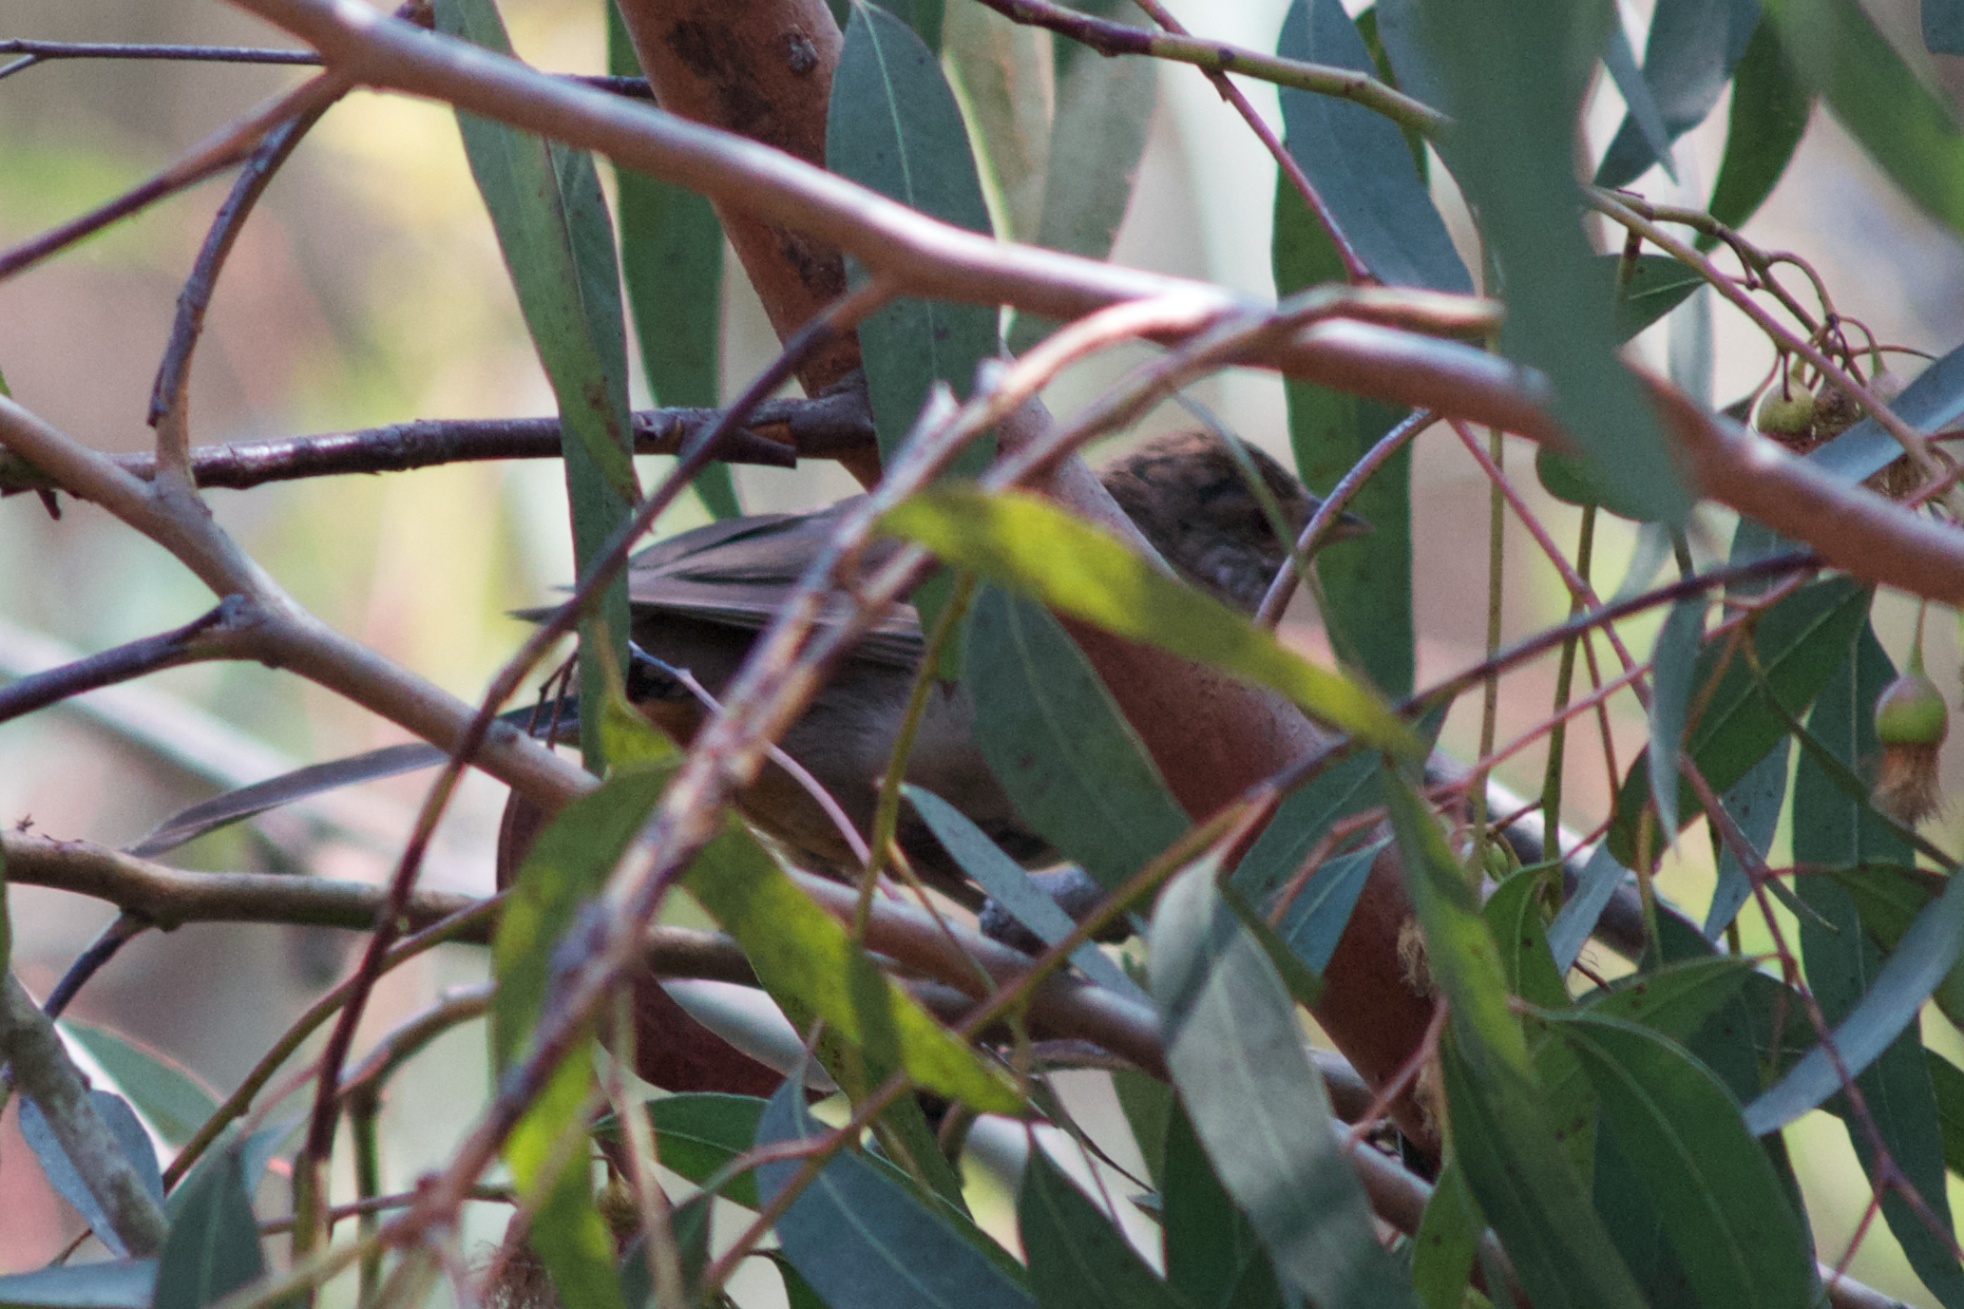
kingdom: Animalia
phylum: Chordata
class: Aves
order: Passeriformes
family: Passerellidae
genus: Melozone
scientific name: Melozone crissalis
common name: California towhee
